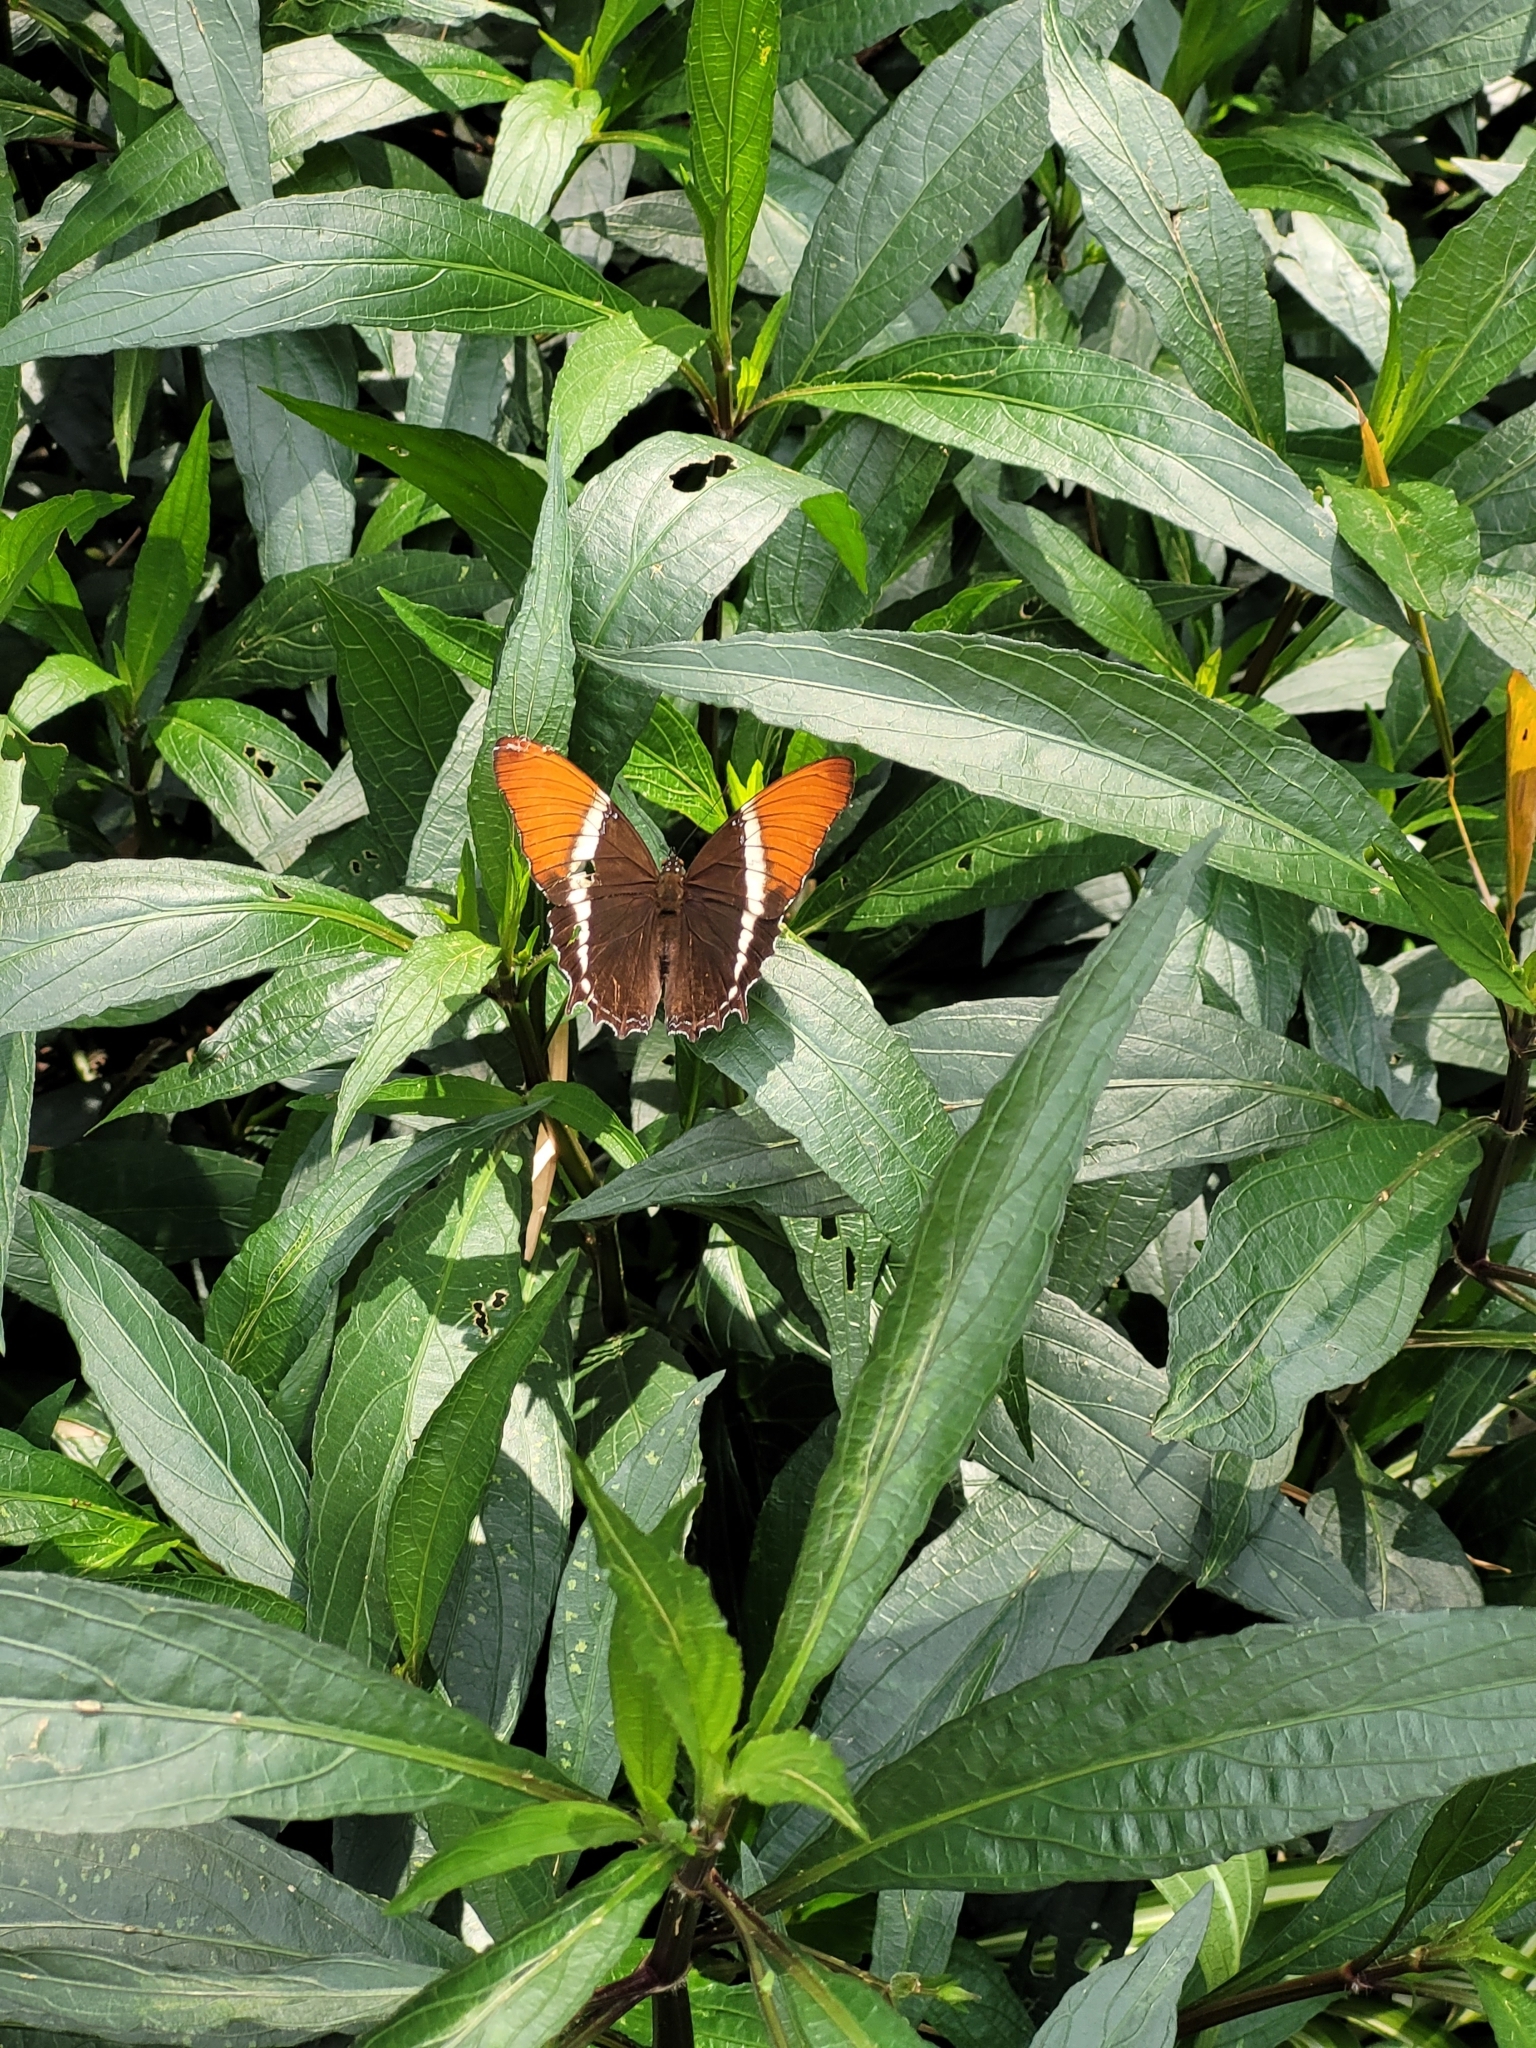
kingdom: Animalia
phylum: Arthropoda
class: Insecta
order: Lepidoptera
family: Nymphalidae
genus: Siproeta
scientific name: Siproeta epaphus
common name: Rusty-tipped page
